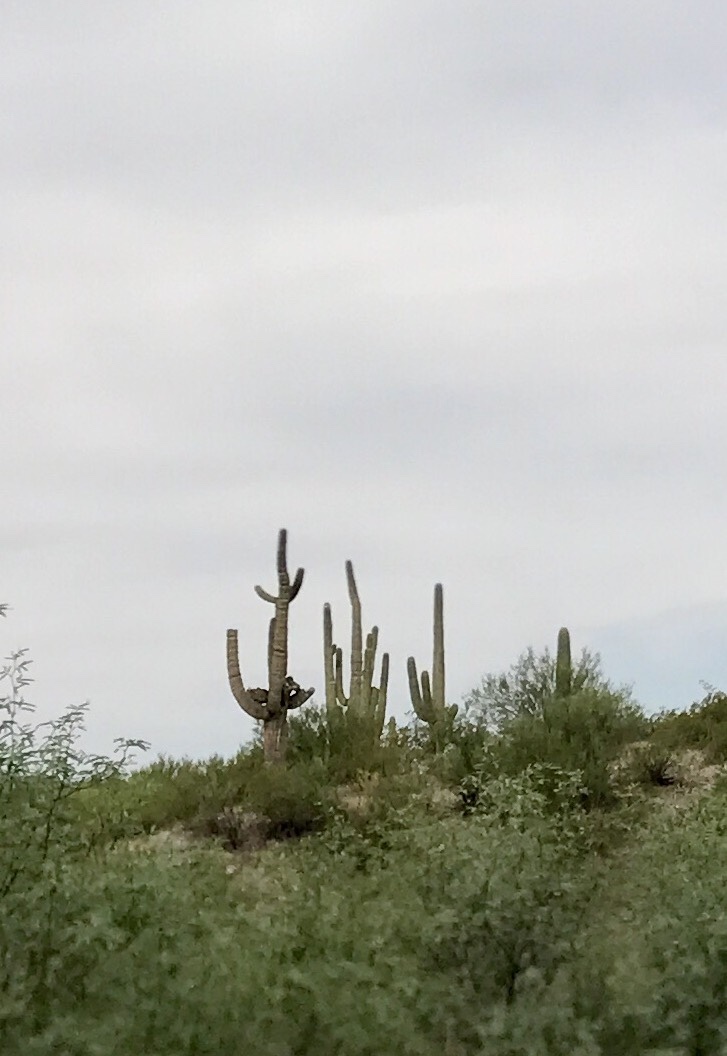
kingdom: Plantae
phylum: Tracheophyta
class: Magnoliopsida
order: Caryophyllales
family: Cactaceae
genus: Carnegiea
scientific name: Carnegiea gigantea
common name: Saguaro
